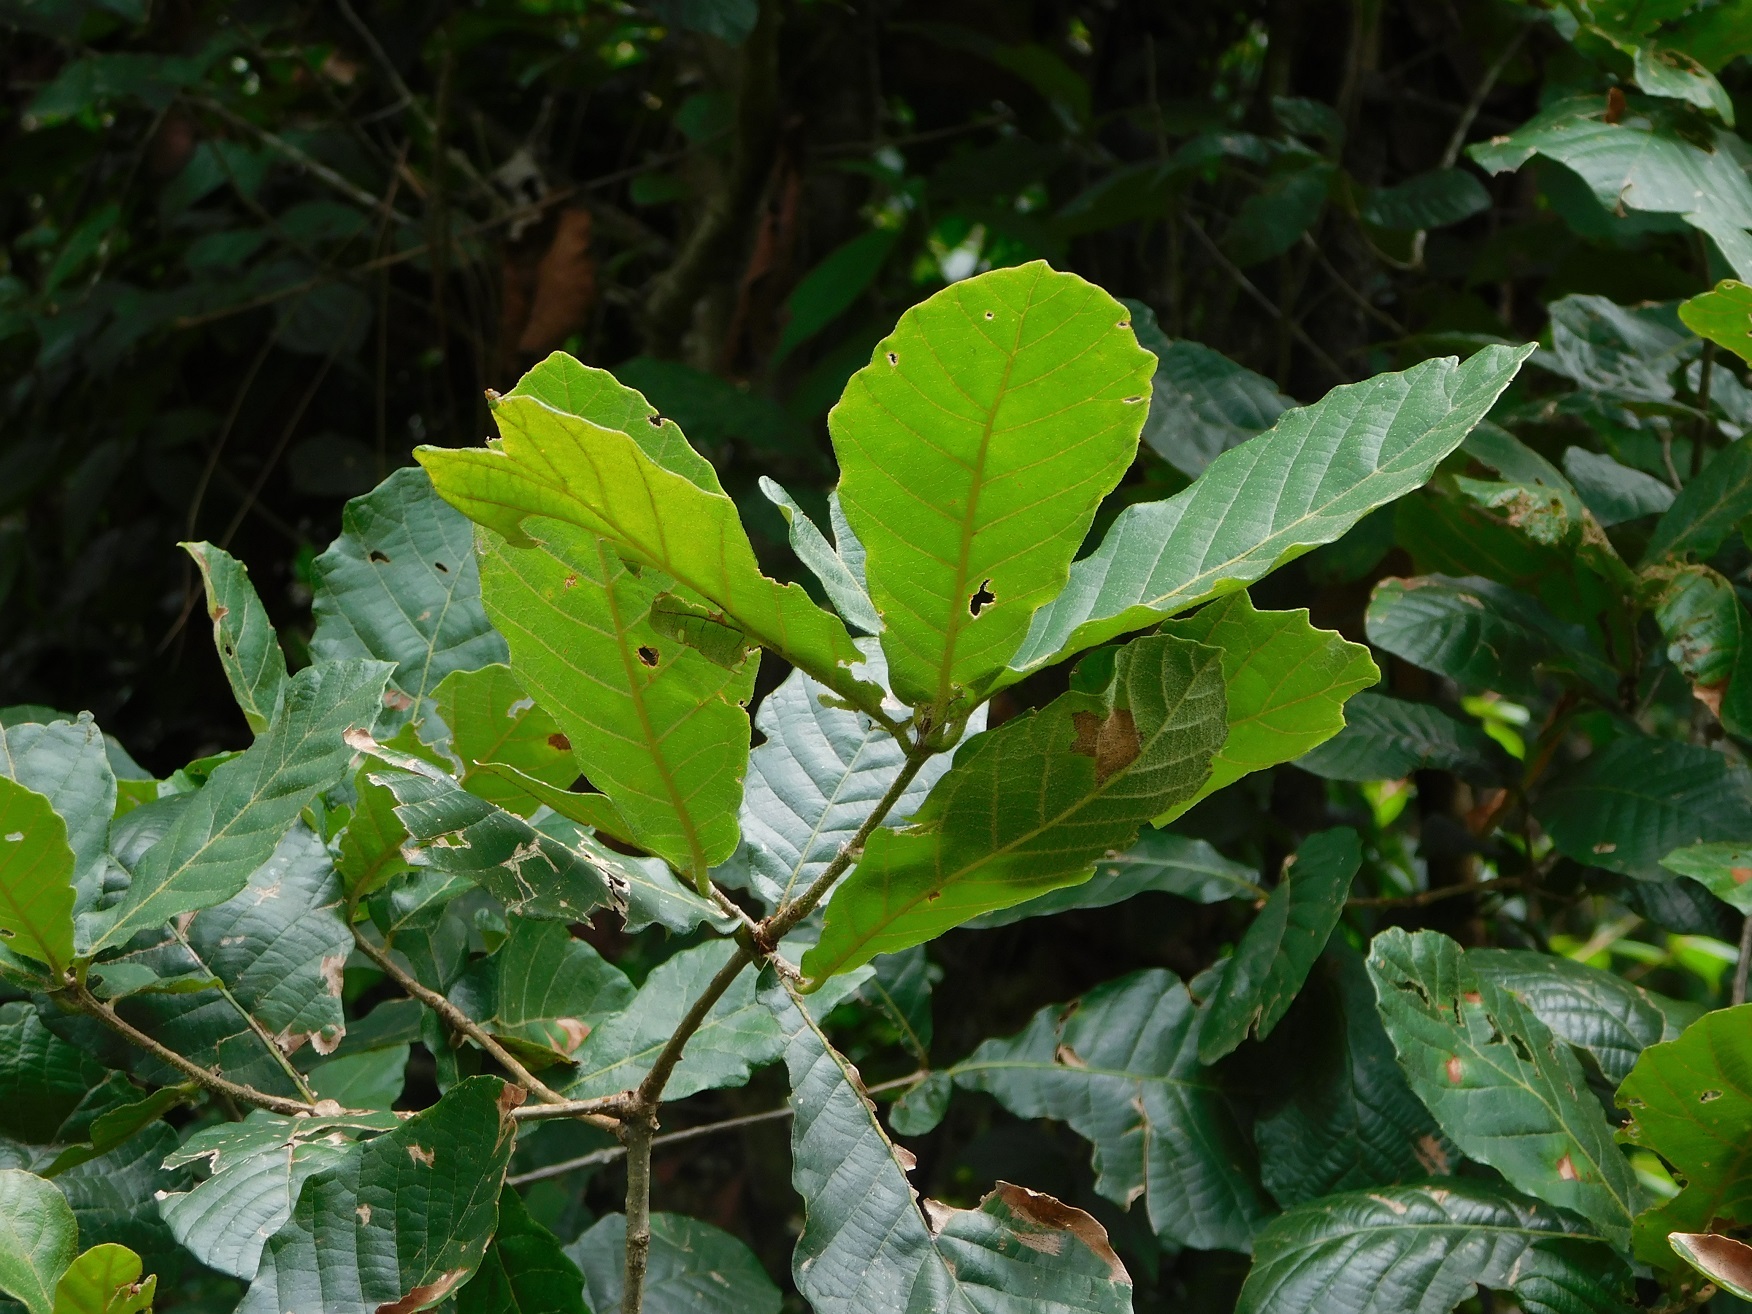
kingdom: Plantae
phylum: Tracheophyta
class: Magnoliopsida
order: Fagales
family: Fagaceae
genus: Quercus
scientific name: Quercus segoviensis
